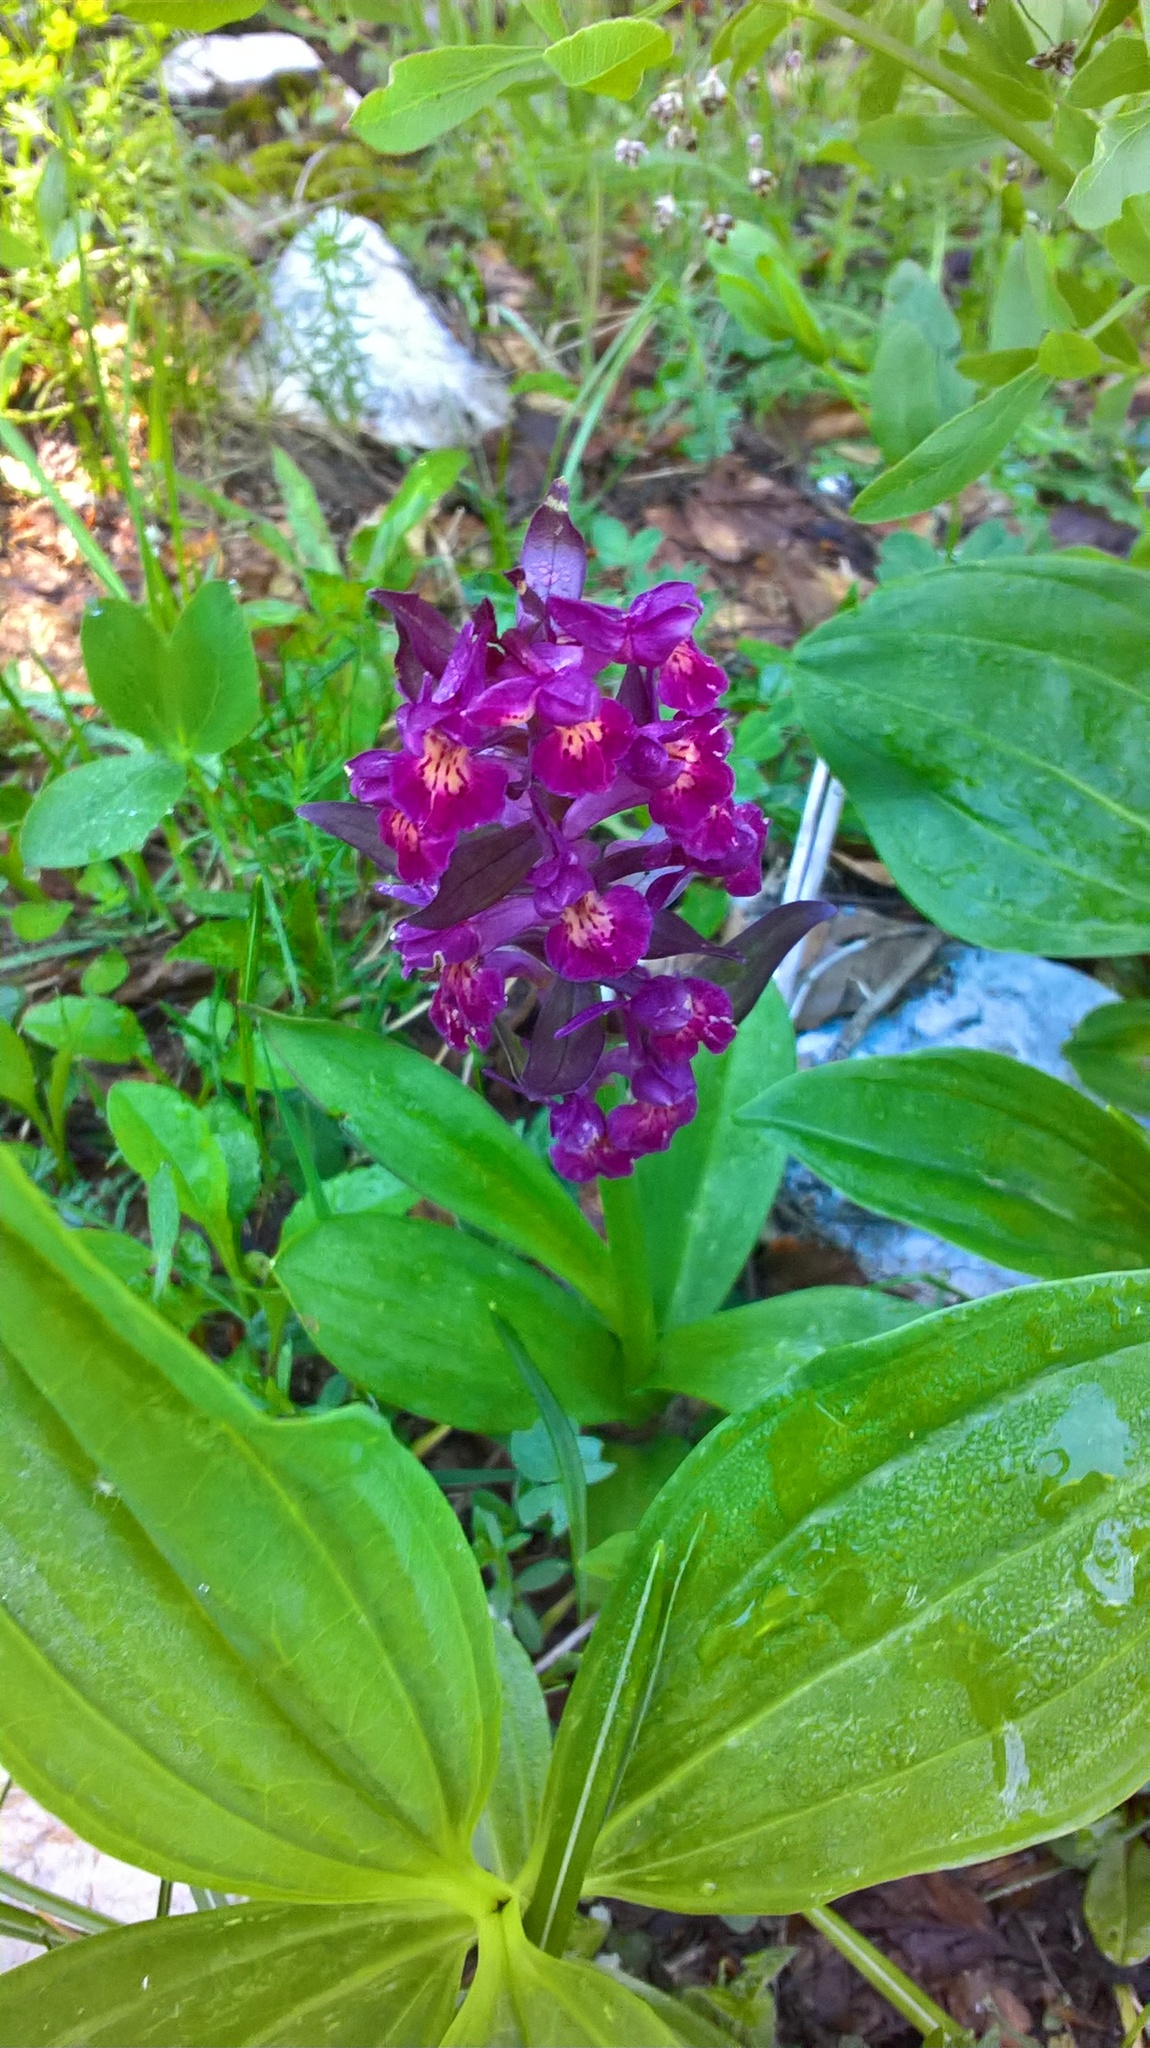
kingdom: Plantae
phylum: Tracheophyta
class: Liliopsida
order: Asparagales
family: Orchidaceae
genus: Dactylorhiza
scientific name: Dactylorhiza sambucina
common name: Elder-flowered orchid
